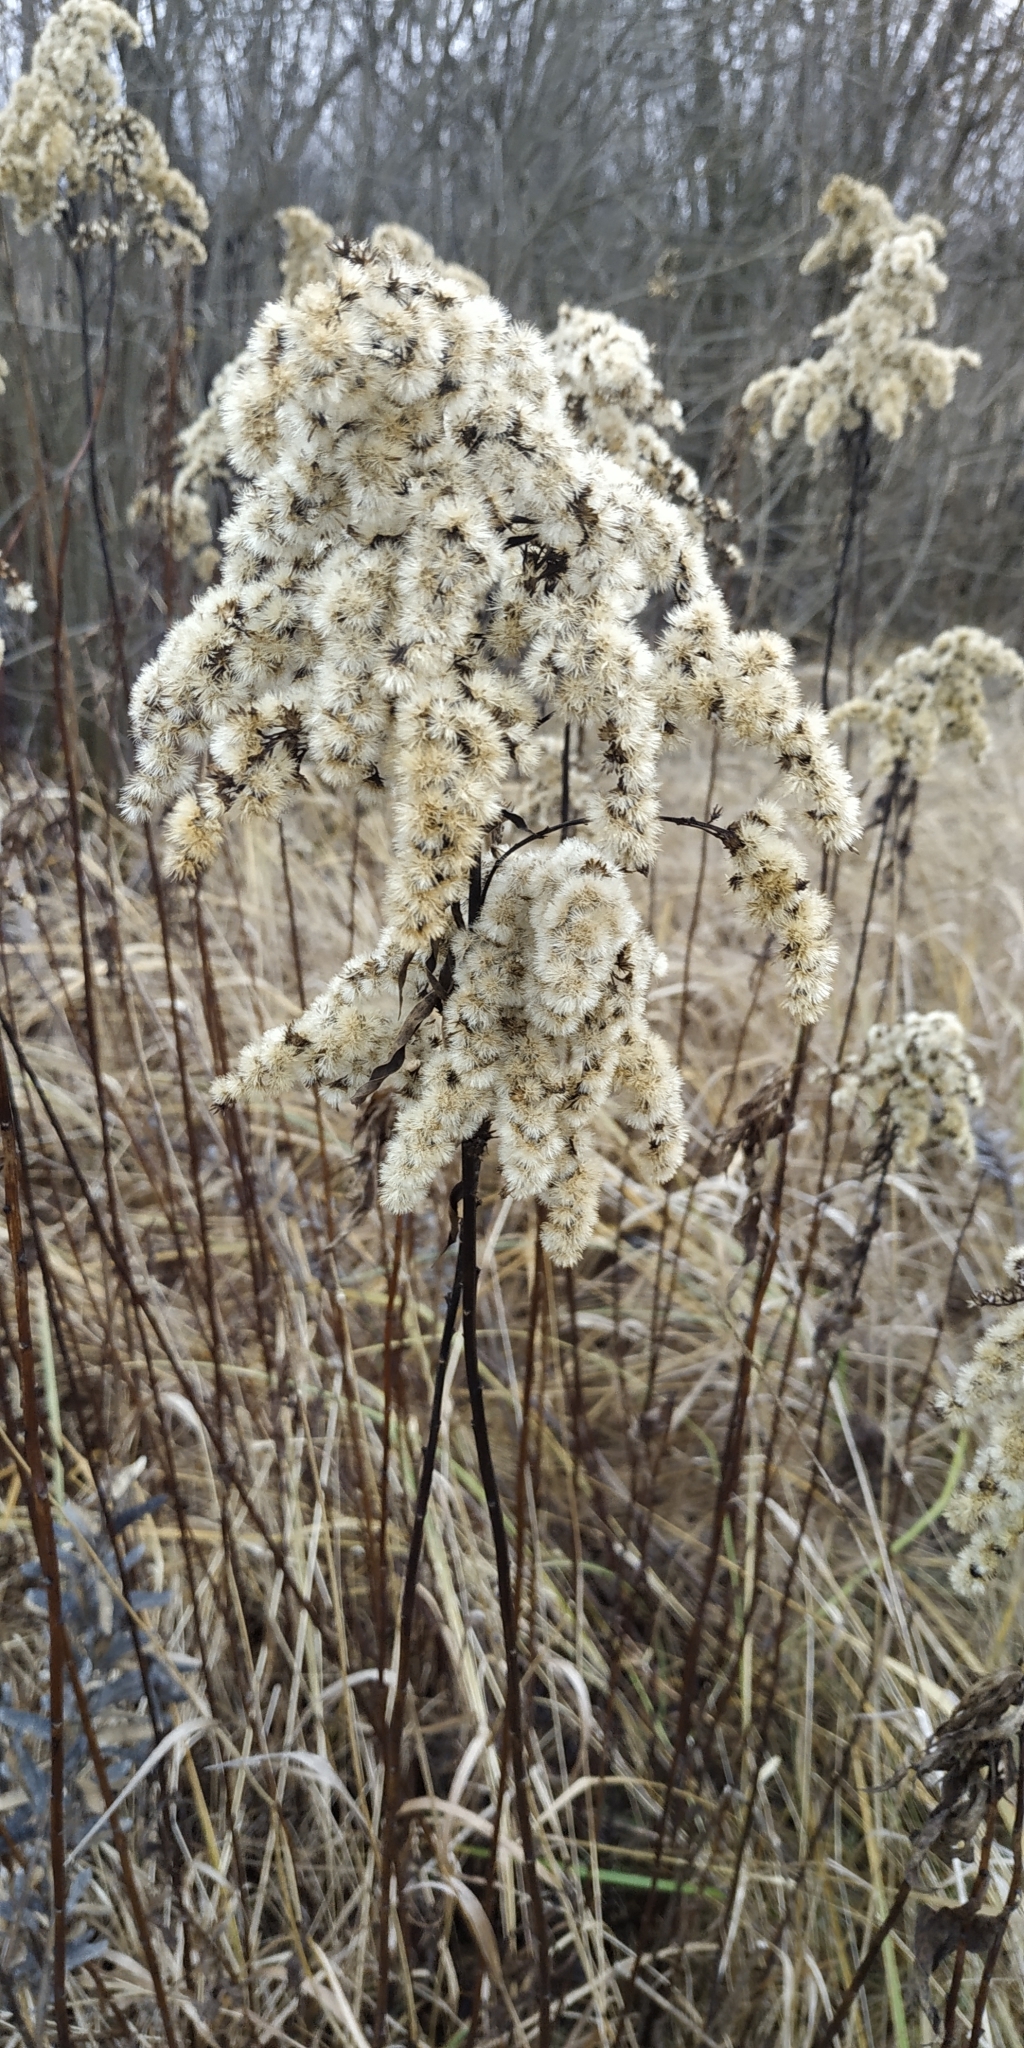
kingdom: Plantae
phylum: Tracheophyta
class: Magnoliopsida
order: Asterales
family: Asteraceae
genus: Solidago
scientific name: Solidago canadensis
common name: Canada goldenrod
